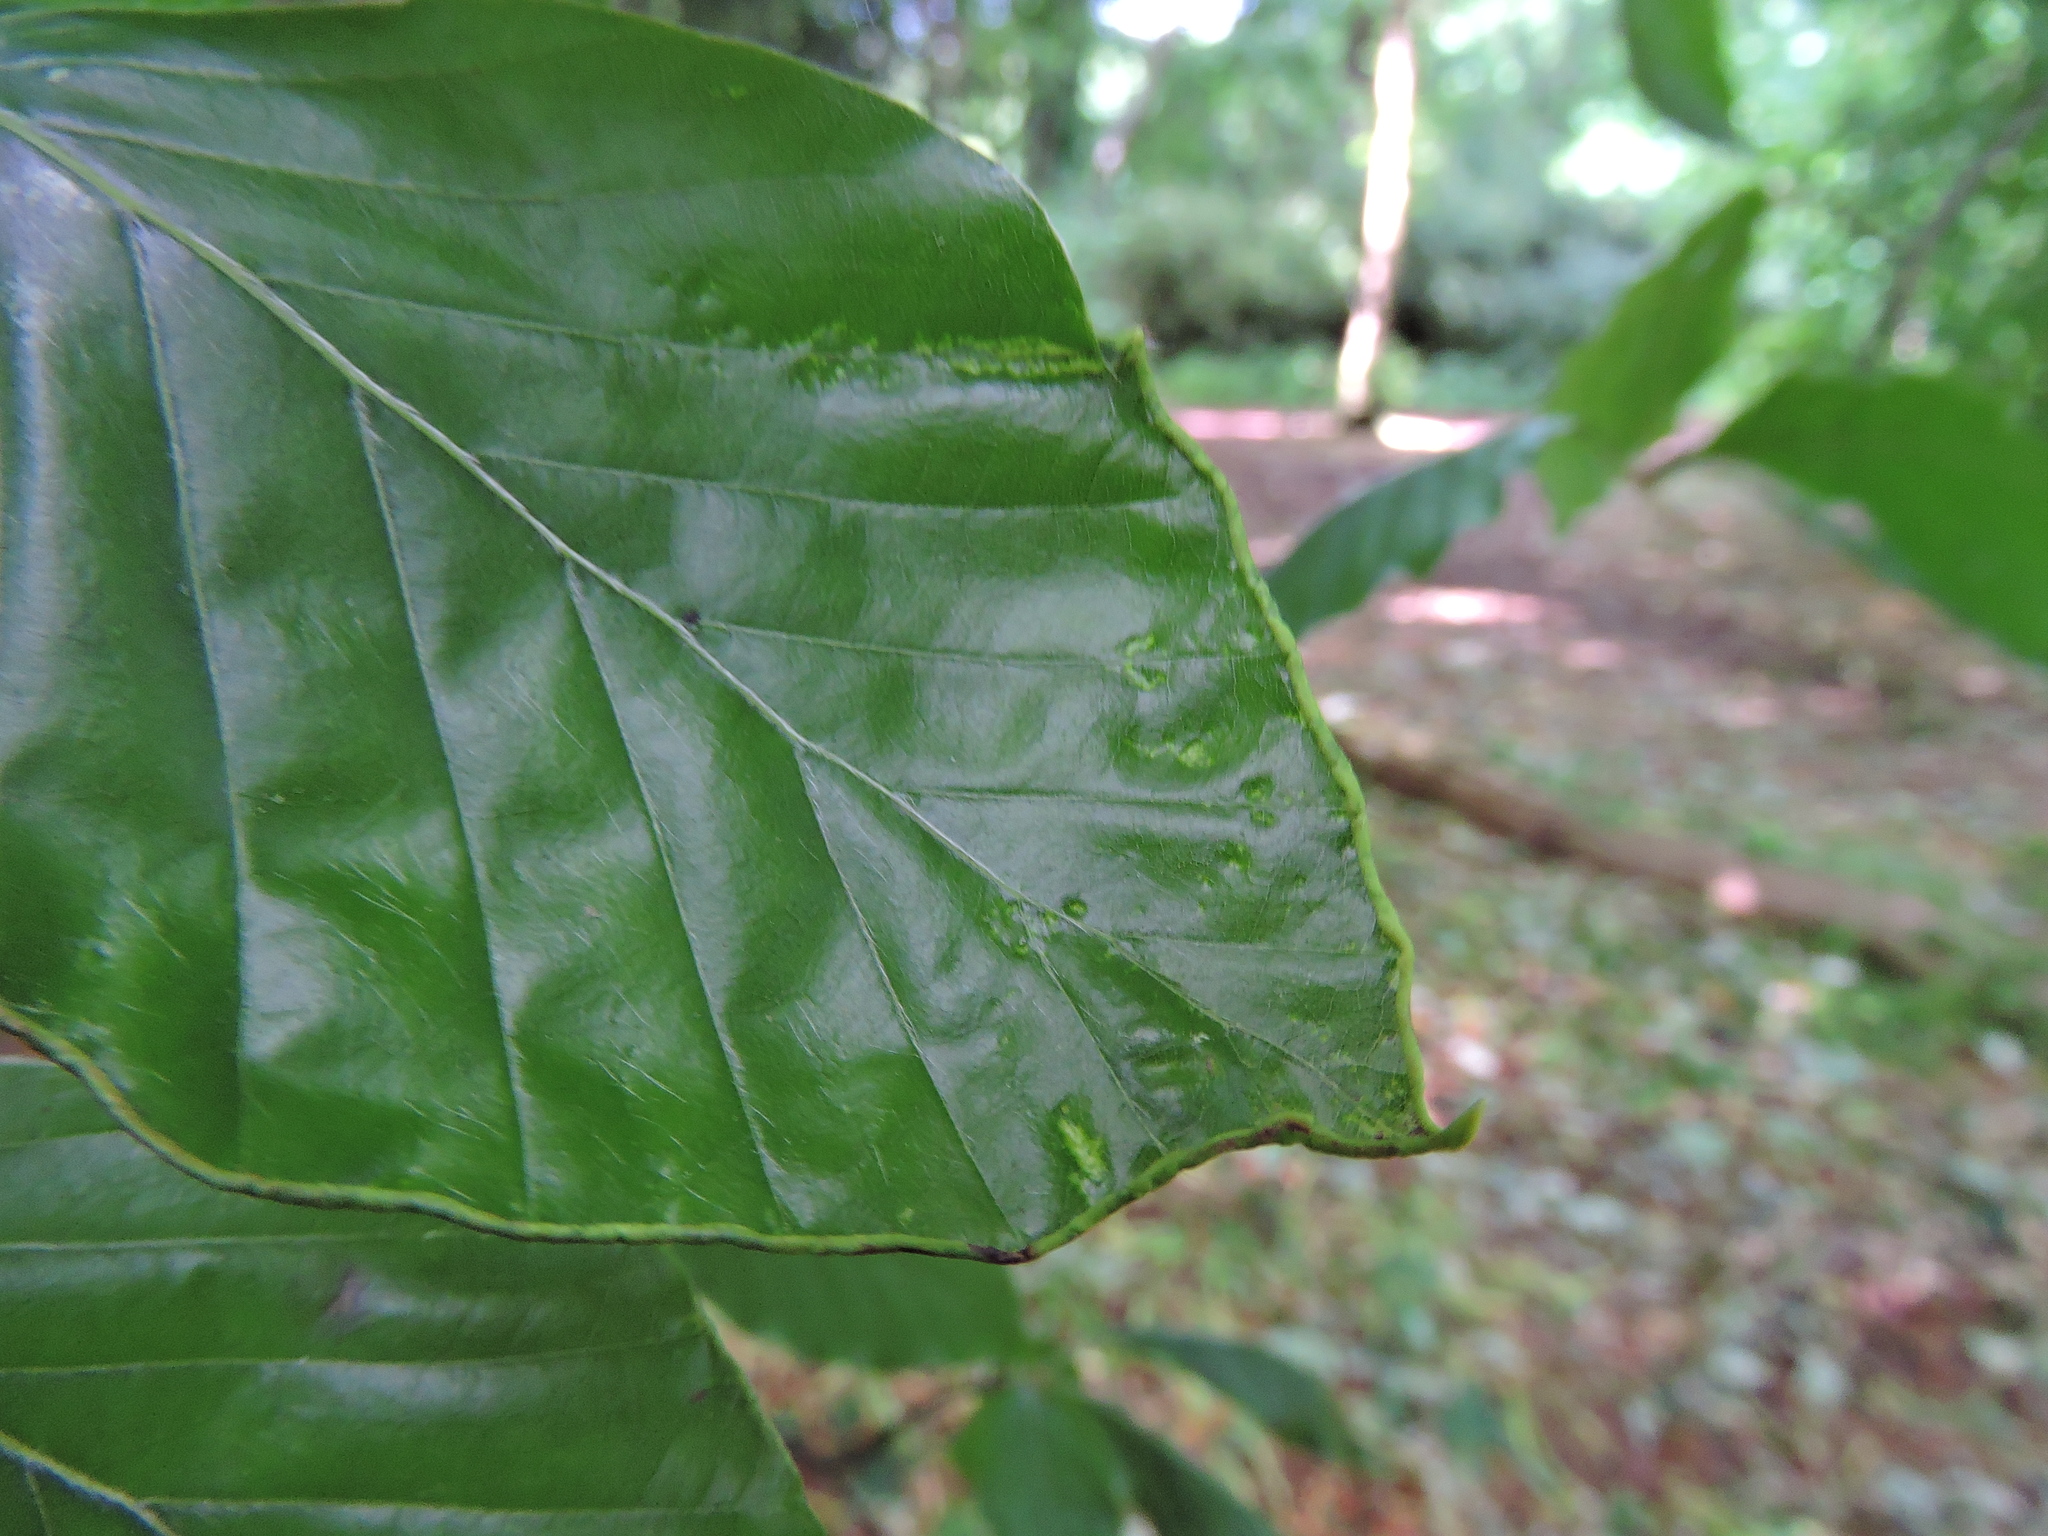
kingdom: Animalia
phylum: Arthropoda
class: Arachnida
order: Trombidiformes
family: Eriophyidae
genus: Acalitus
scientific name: Acalitus stenaspis
